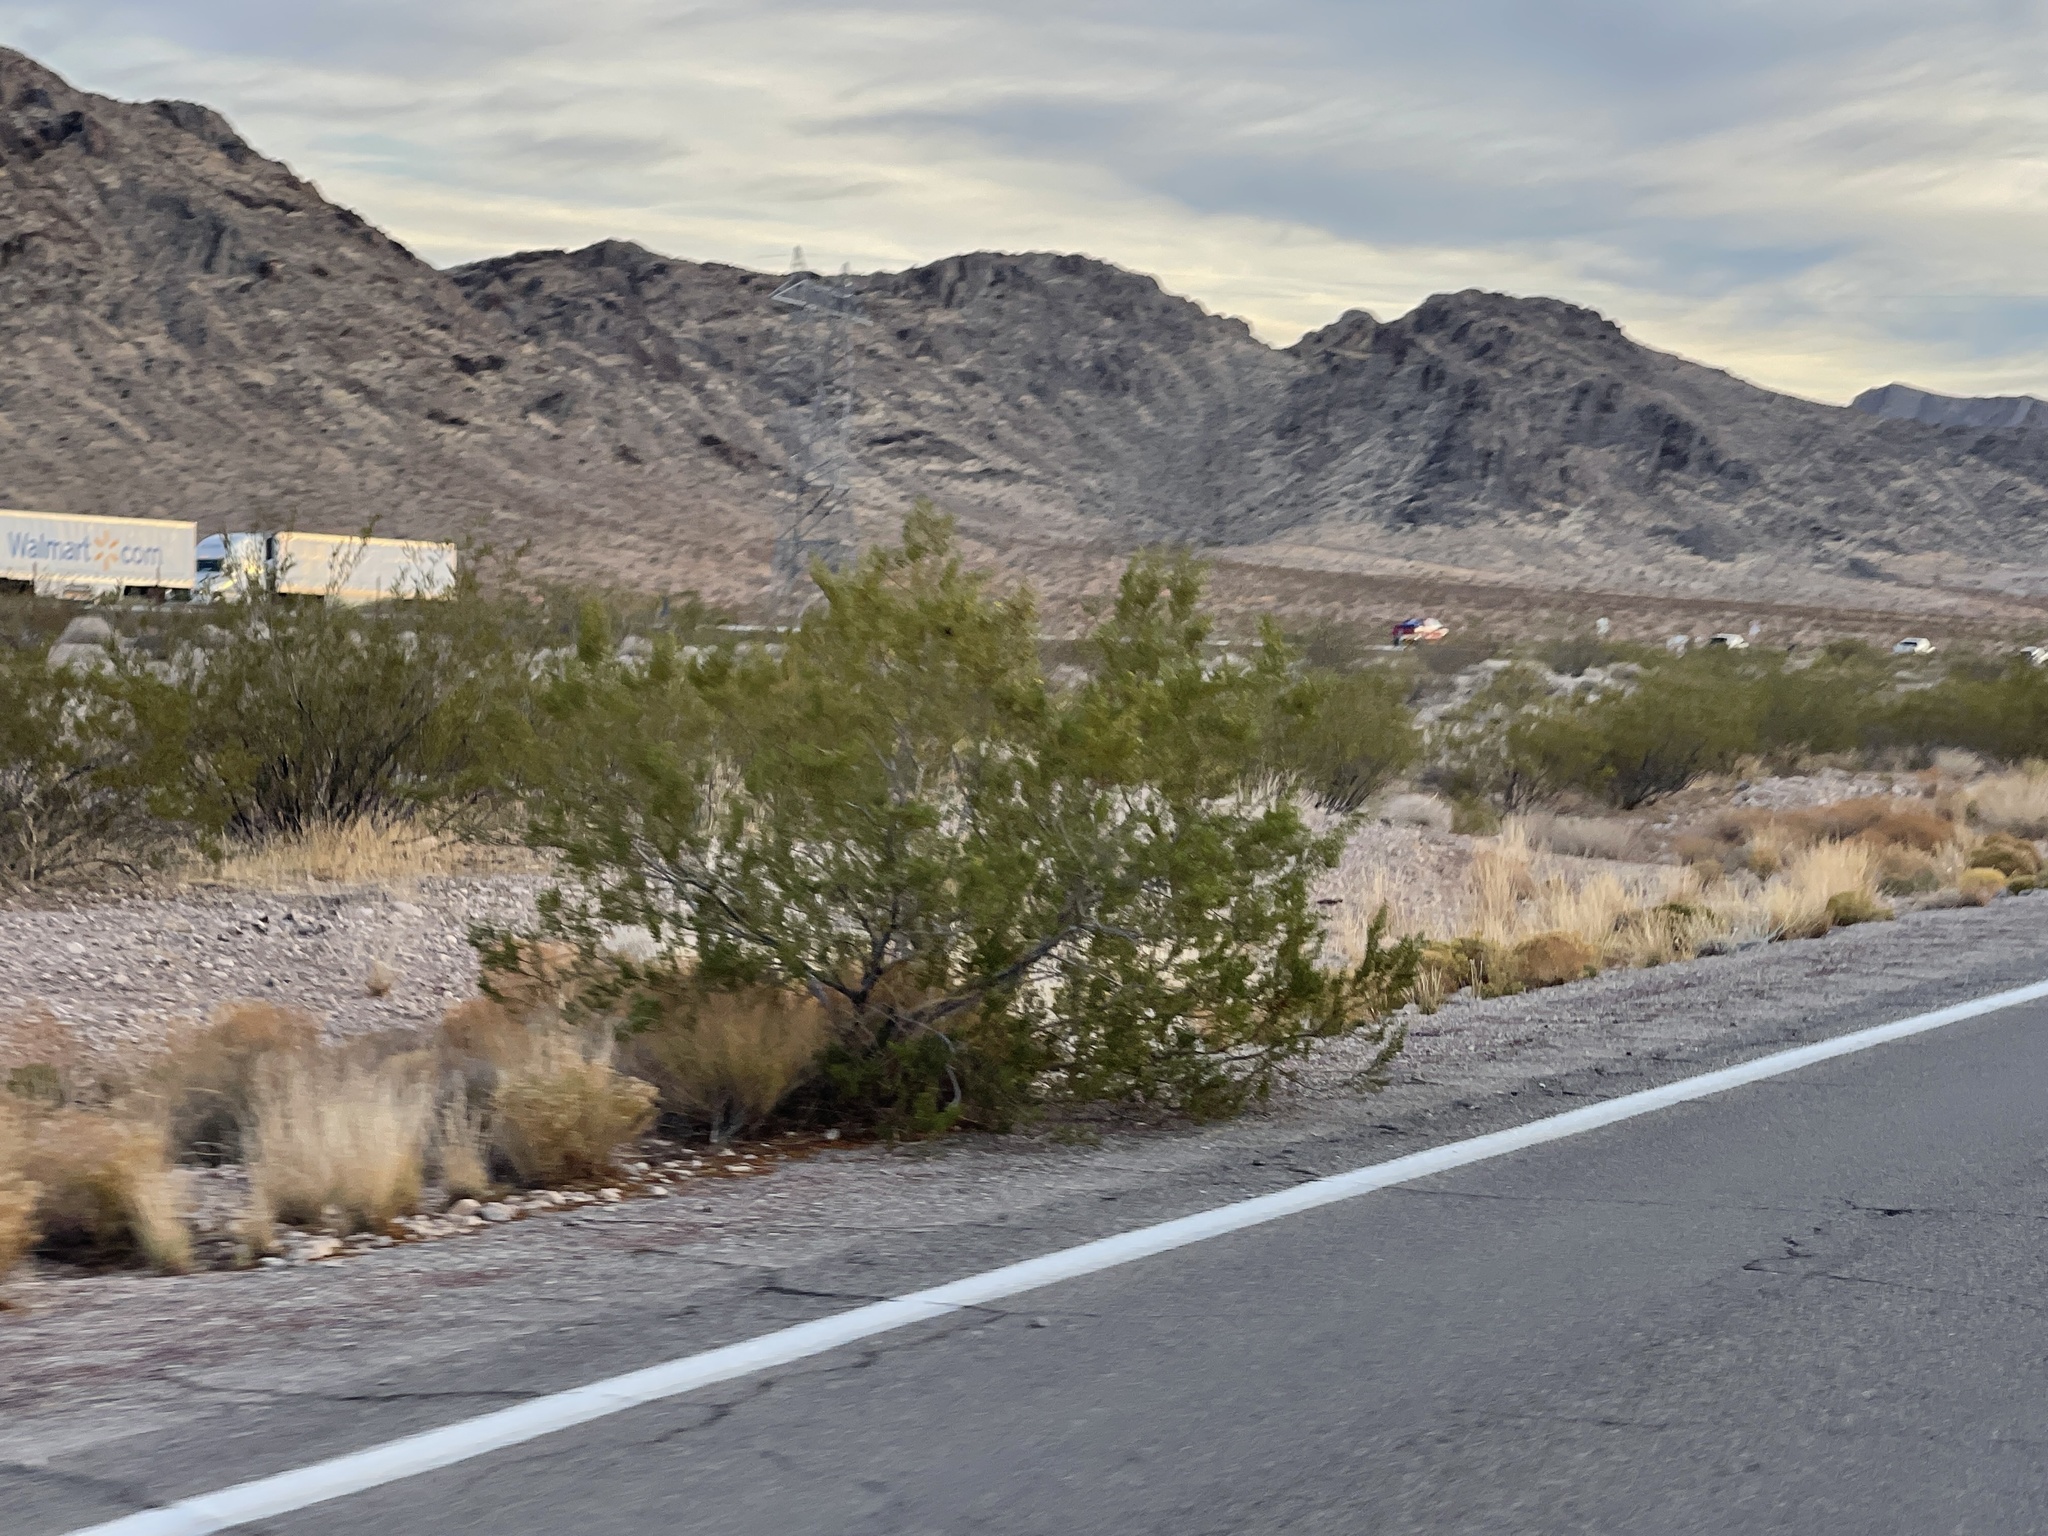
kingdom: Plantae
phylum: Tracheophyta
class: Magnoliopsida
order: Zygophyllales
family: Zygophyllaceae
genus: Larrea
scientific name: Larrea tridentata
